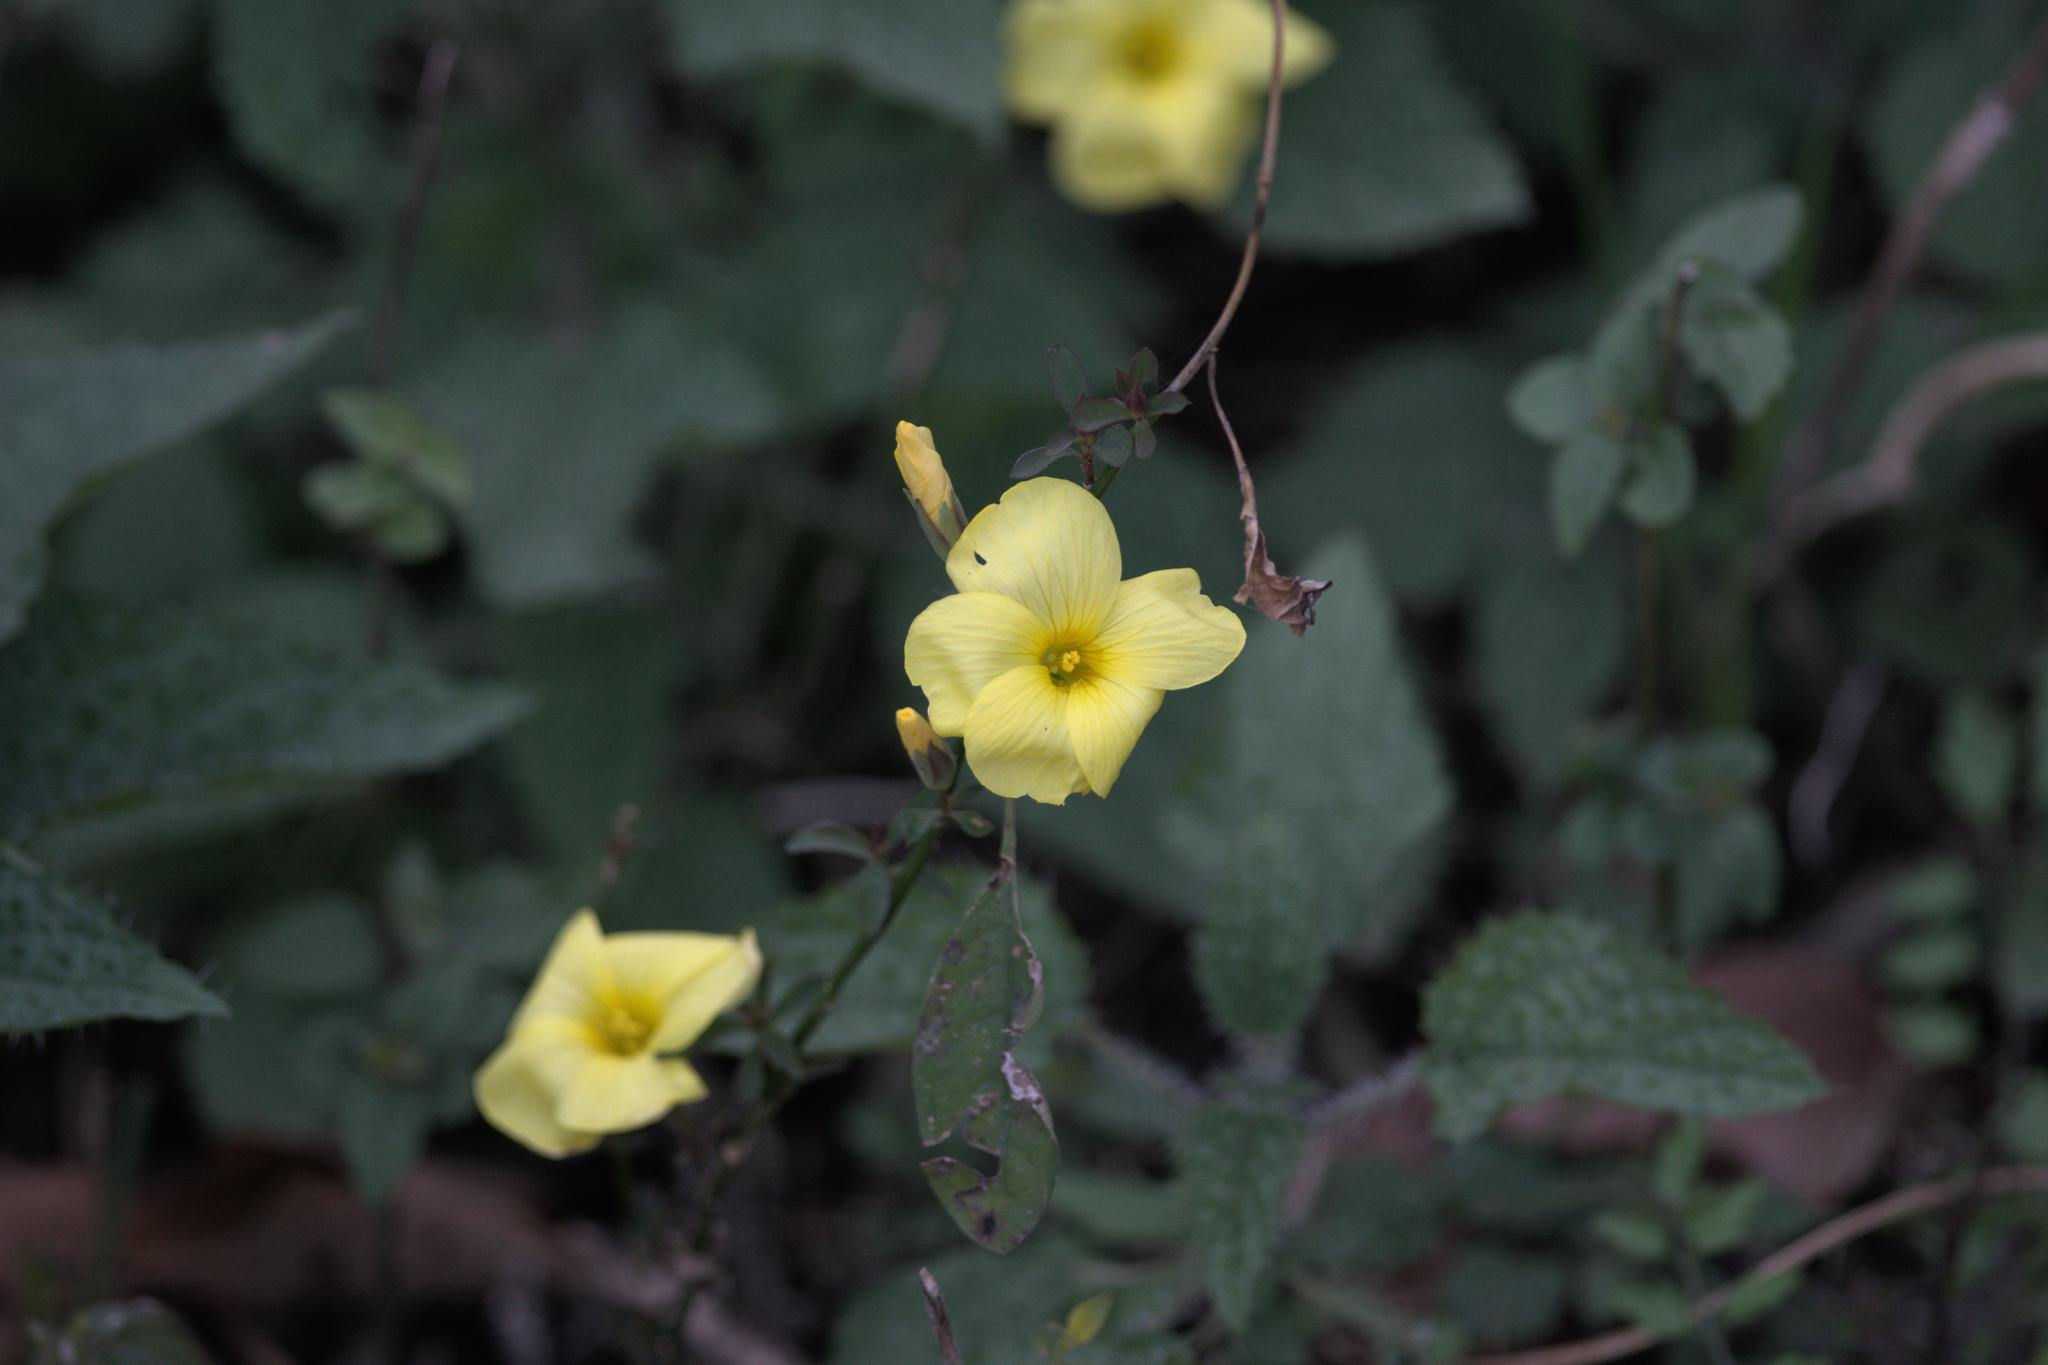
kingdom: Plantae
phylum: Tracheophyta
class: Magnoliopsida
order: Malpighiales
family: Linaceae
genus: Reinwardtia
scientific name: Reinwardtia indica
